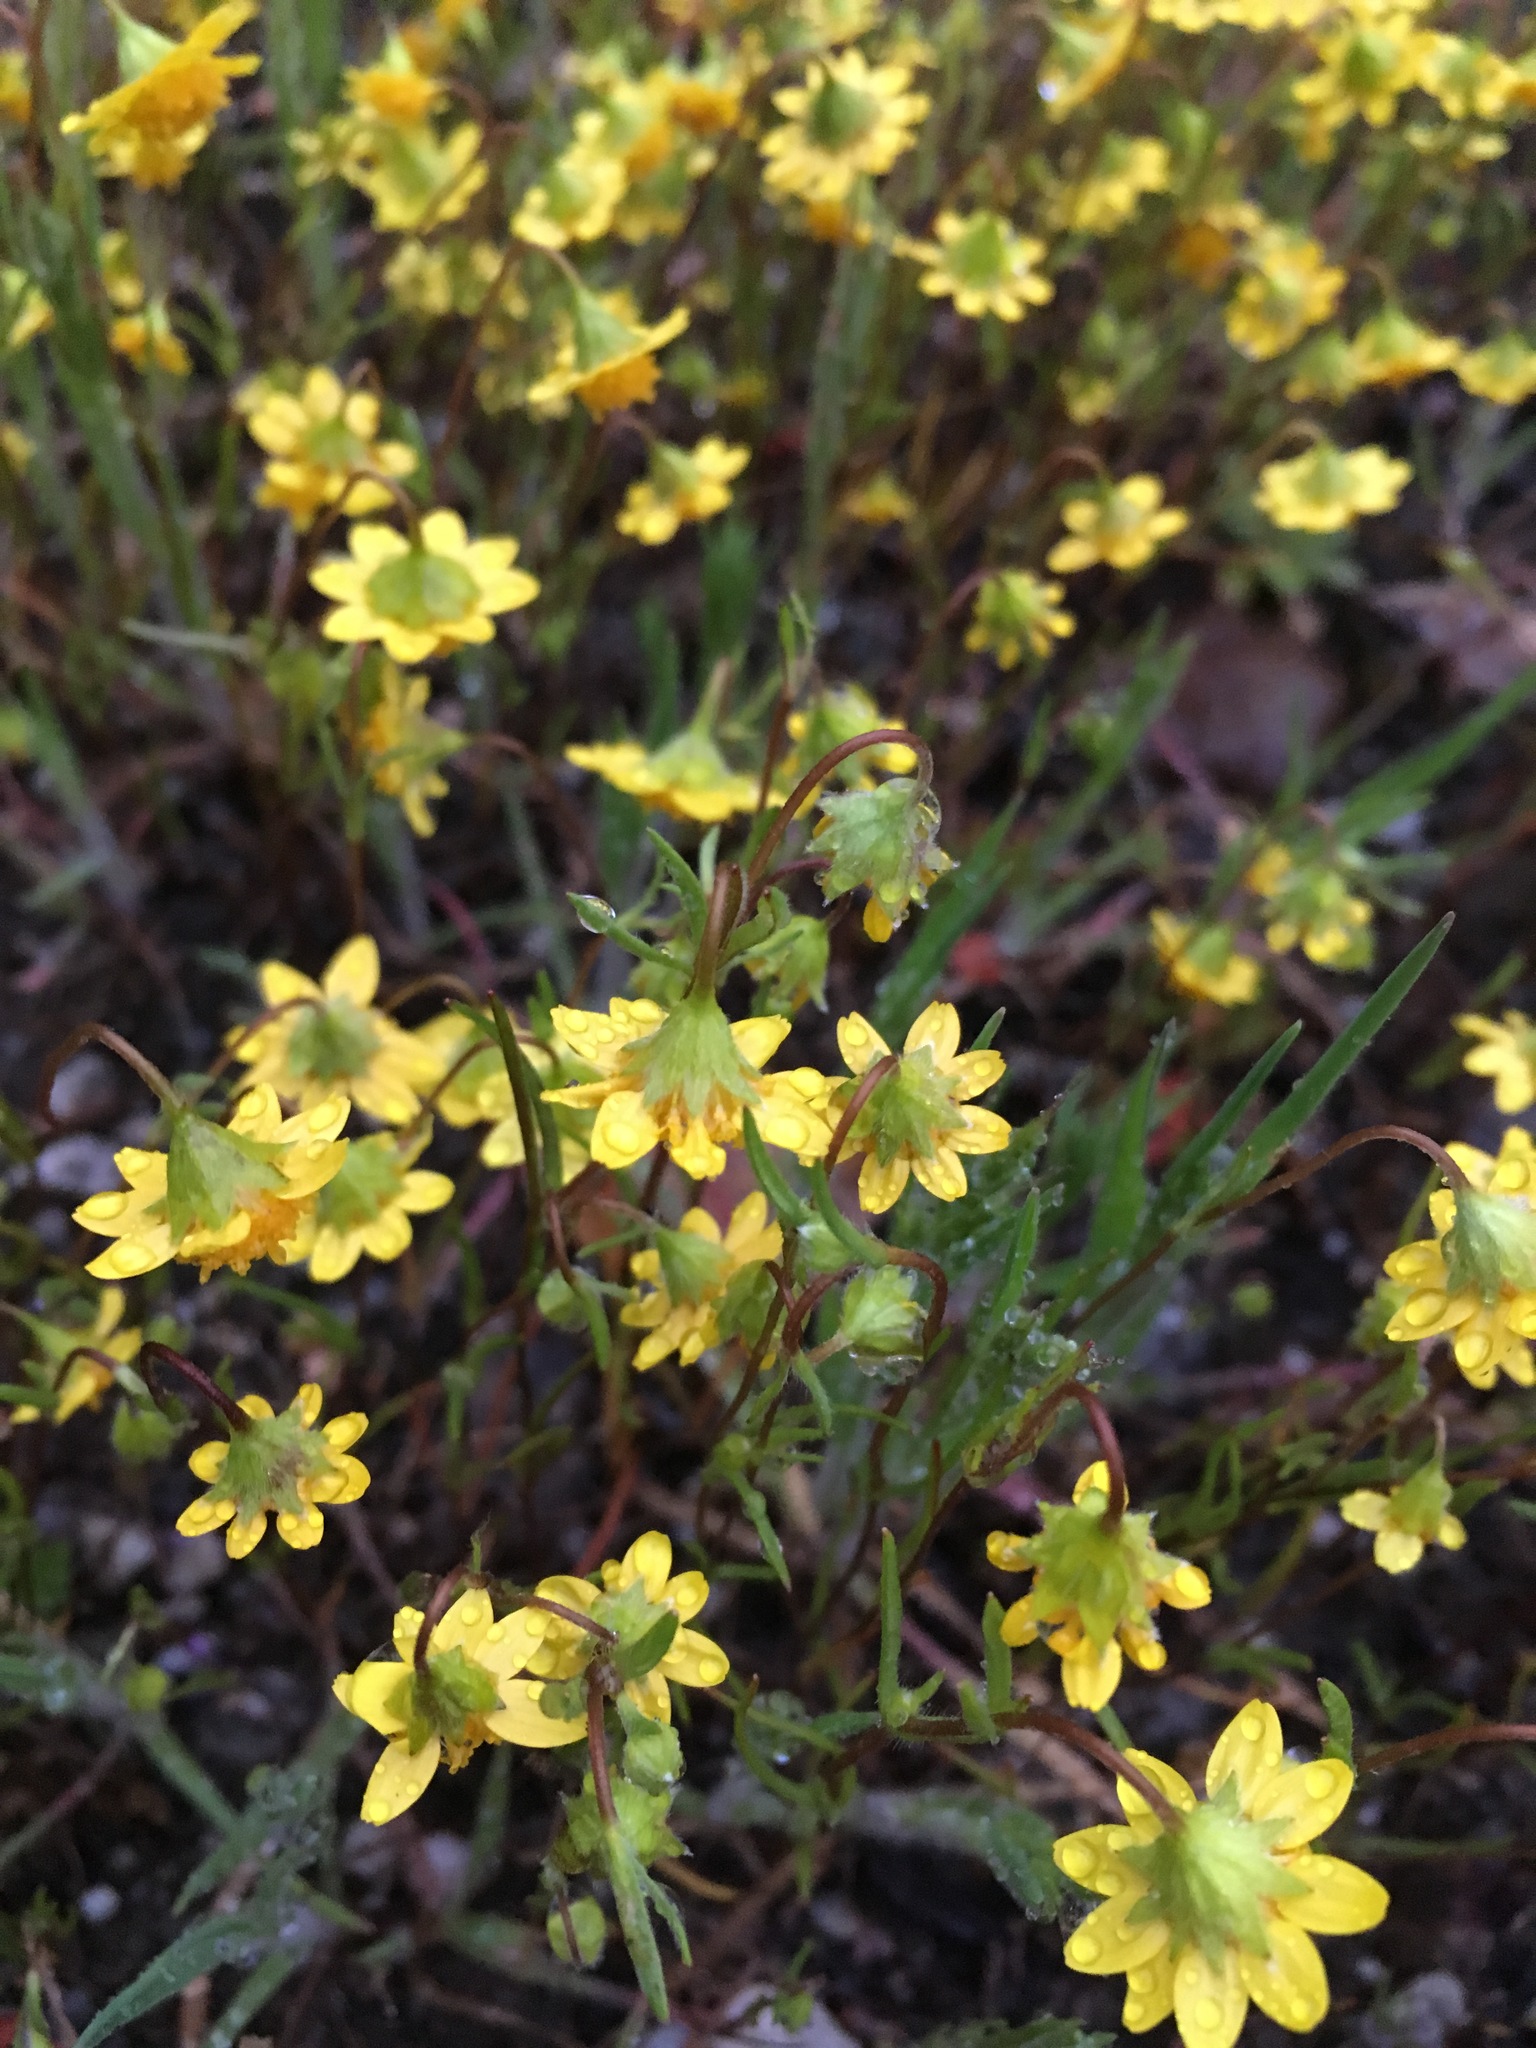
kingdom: Plantae
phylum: Tracheophyta
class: Magnoliopsida
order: Asterales
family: Asteraceae
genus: Lasthenia
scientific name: Lasthenia gracilis
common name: Common goldfields
